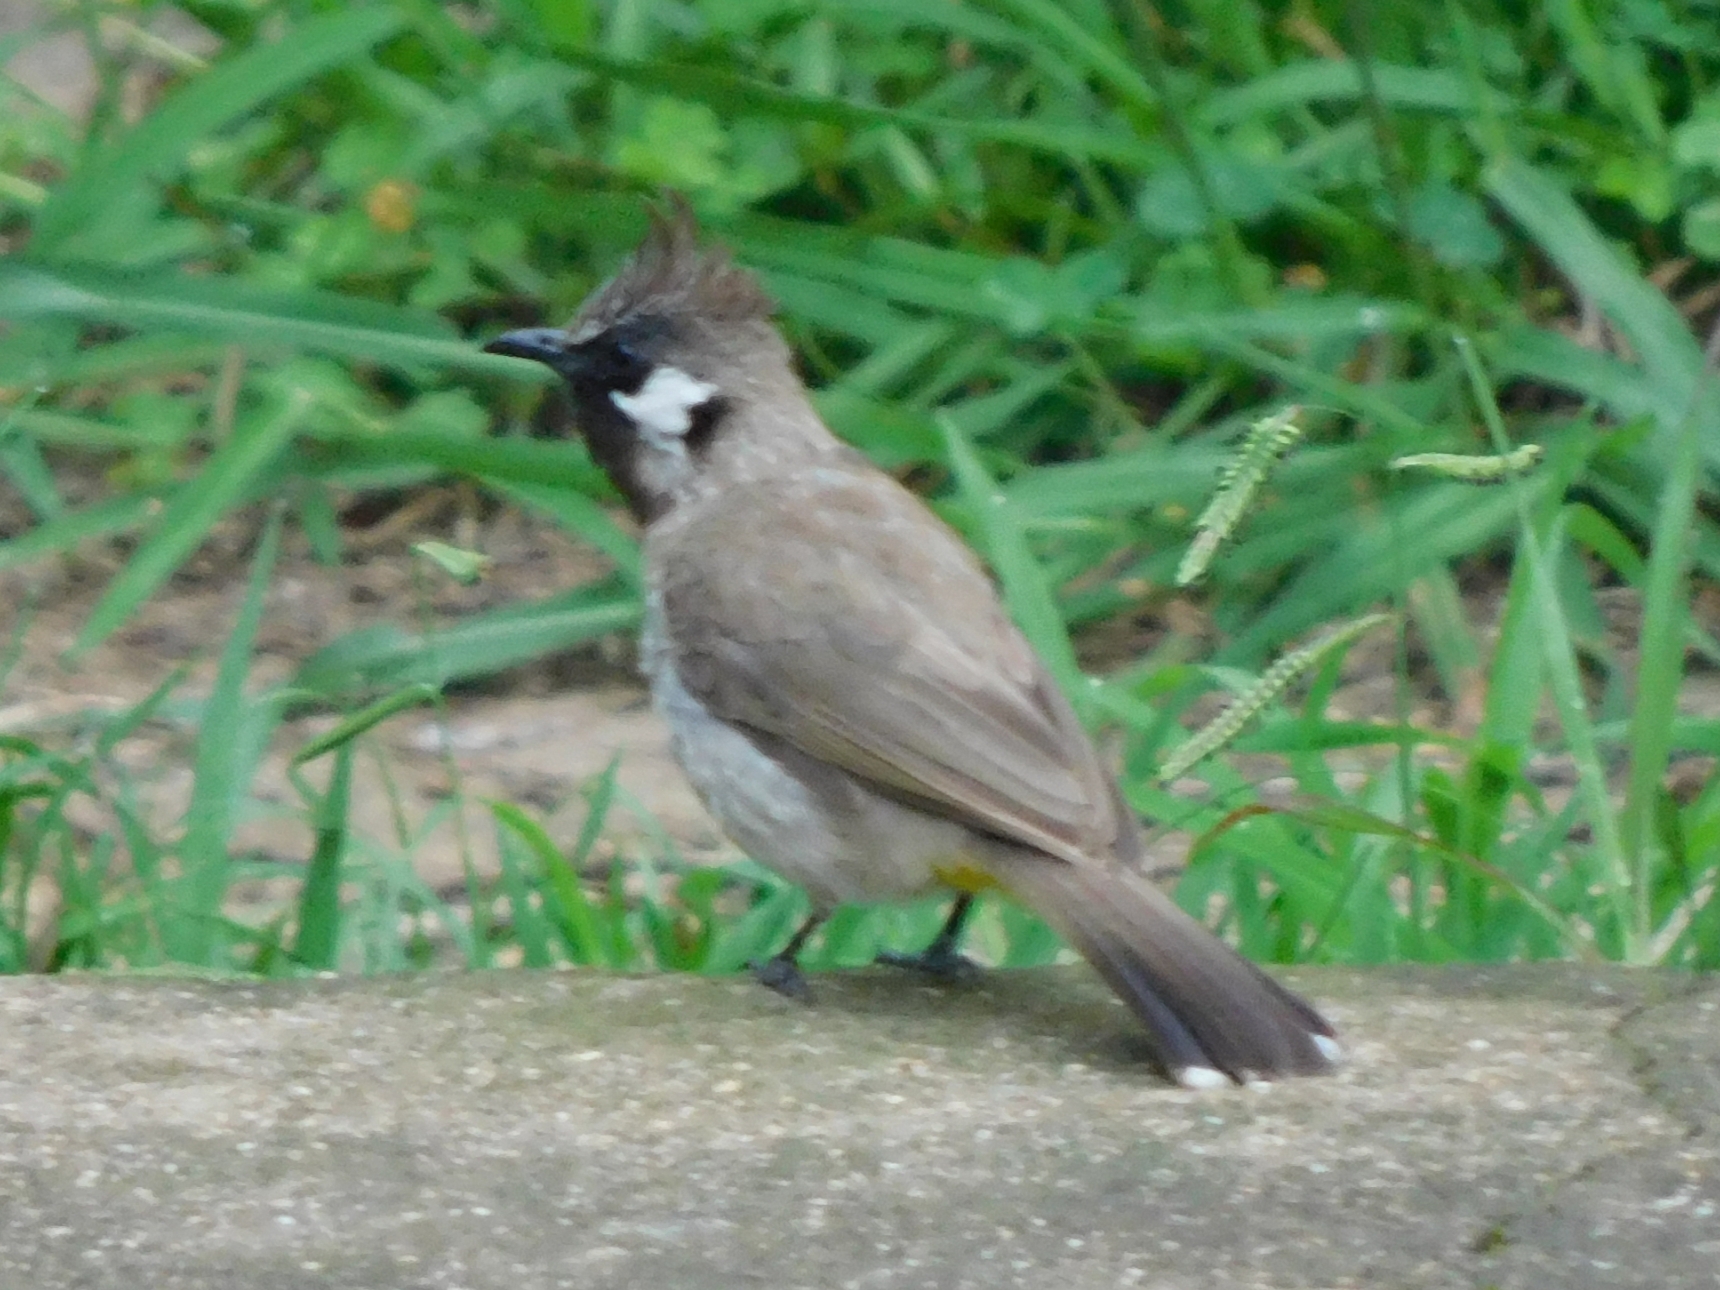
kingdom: Animalia
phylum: Chordata
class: Aves
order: Passeriformes
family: Pycnonotidae
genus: Pycnonotus
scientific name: Pycnonotus leucogenys
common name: Himalayan bulbul
